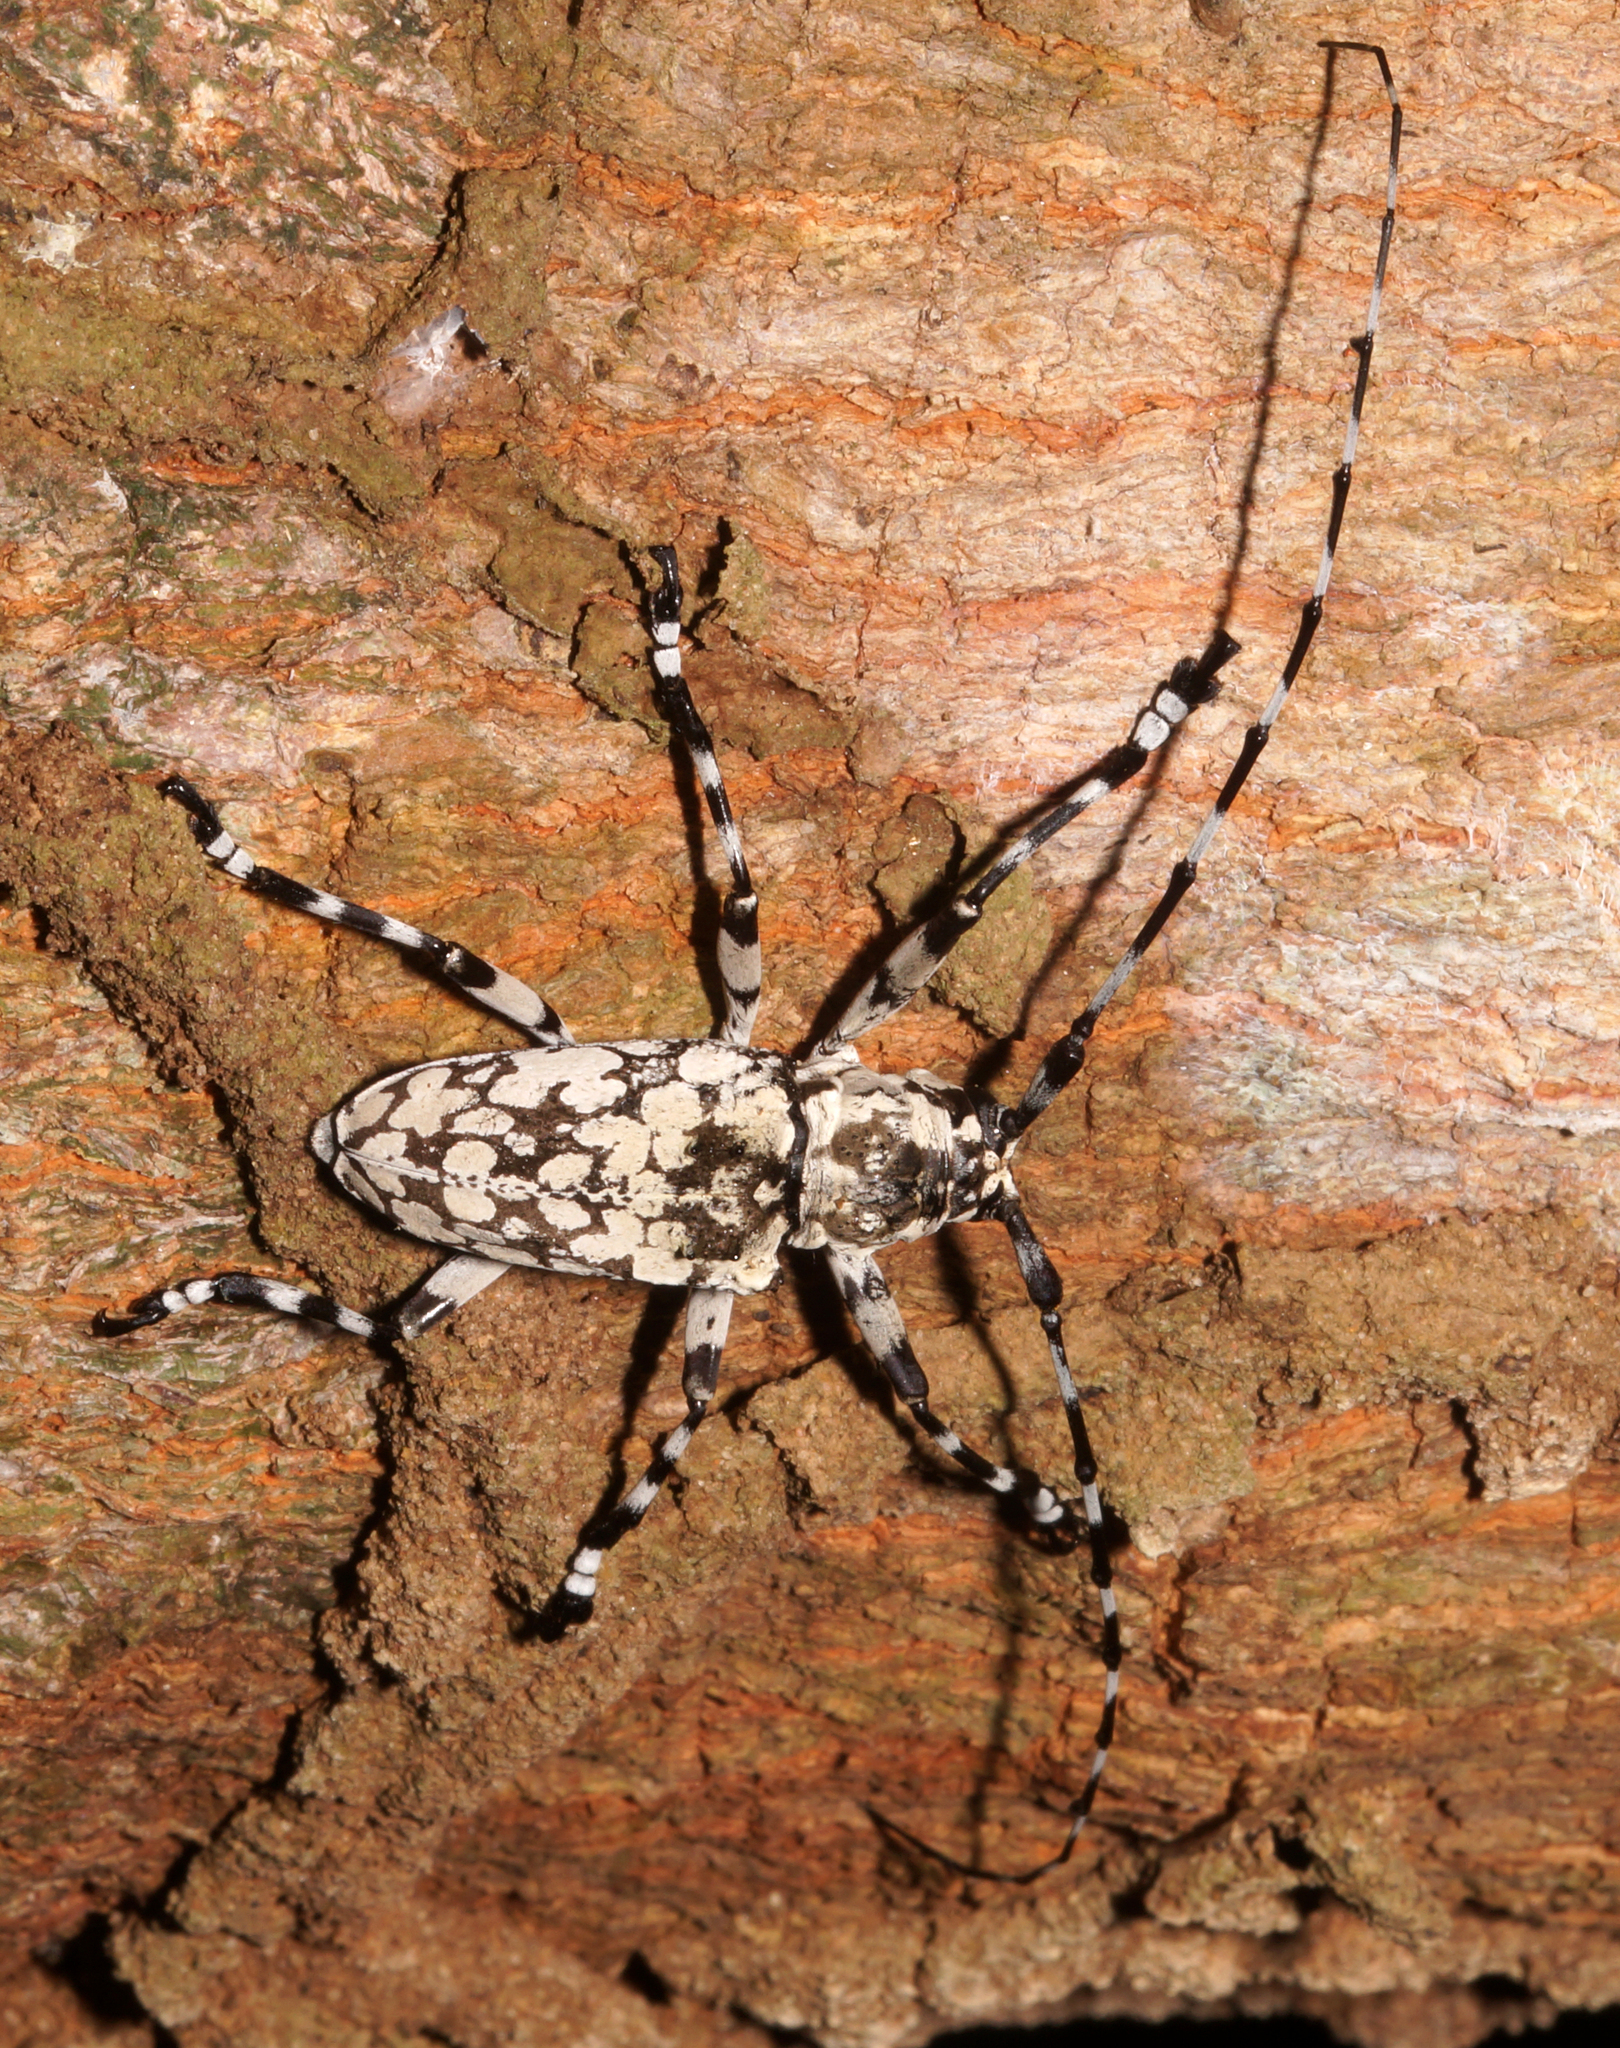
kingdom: Animalia
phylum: Arthropoda
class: Insecta
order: Coleoptera
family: Cerambycidae
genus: Palimna
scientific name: Palimna annulata
